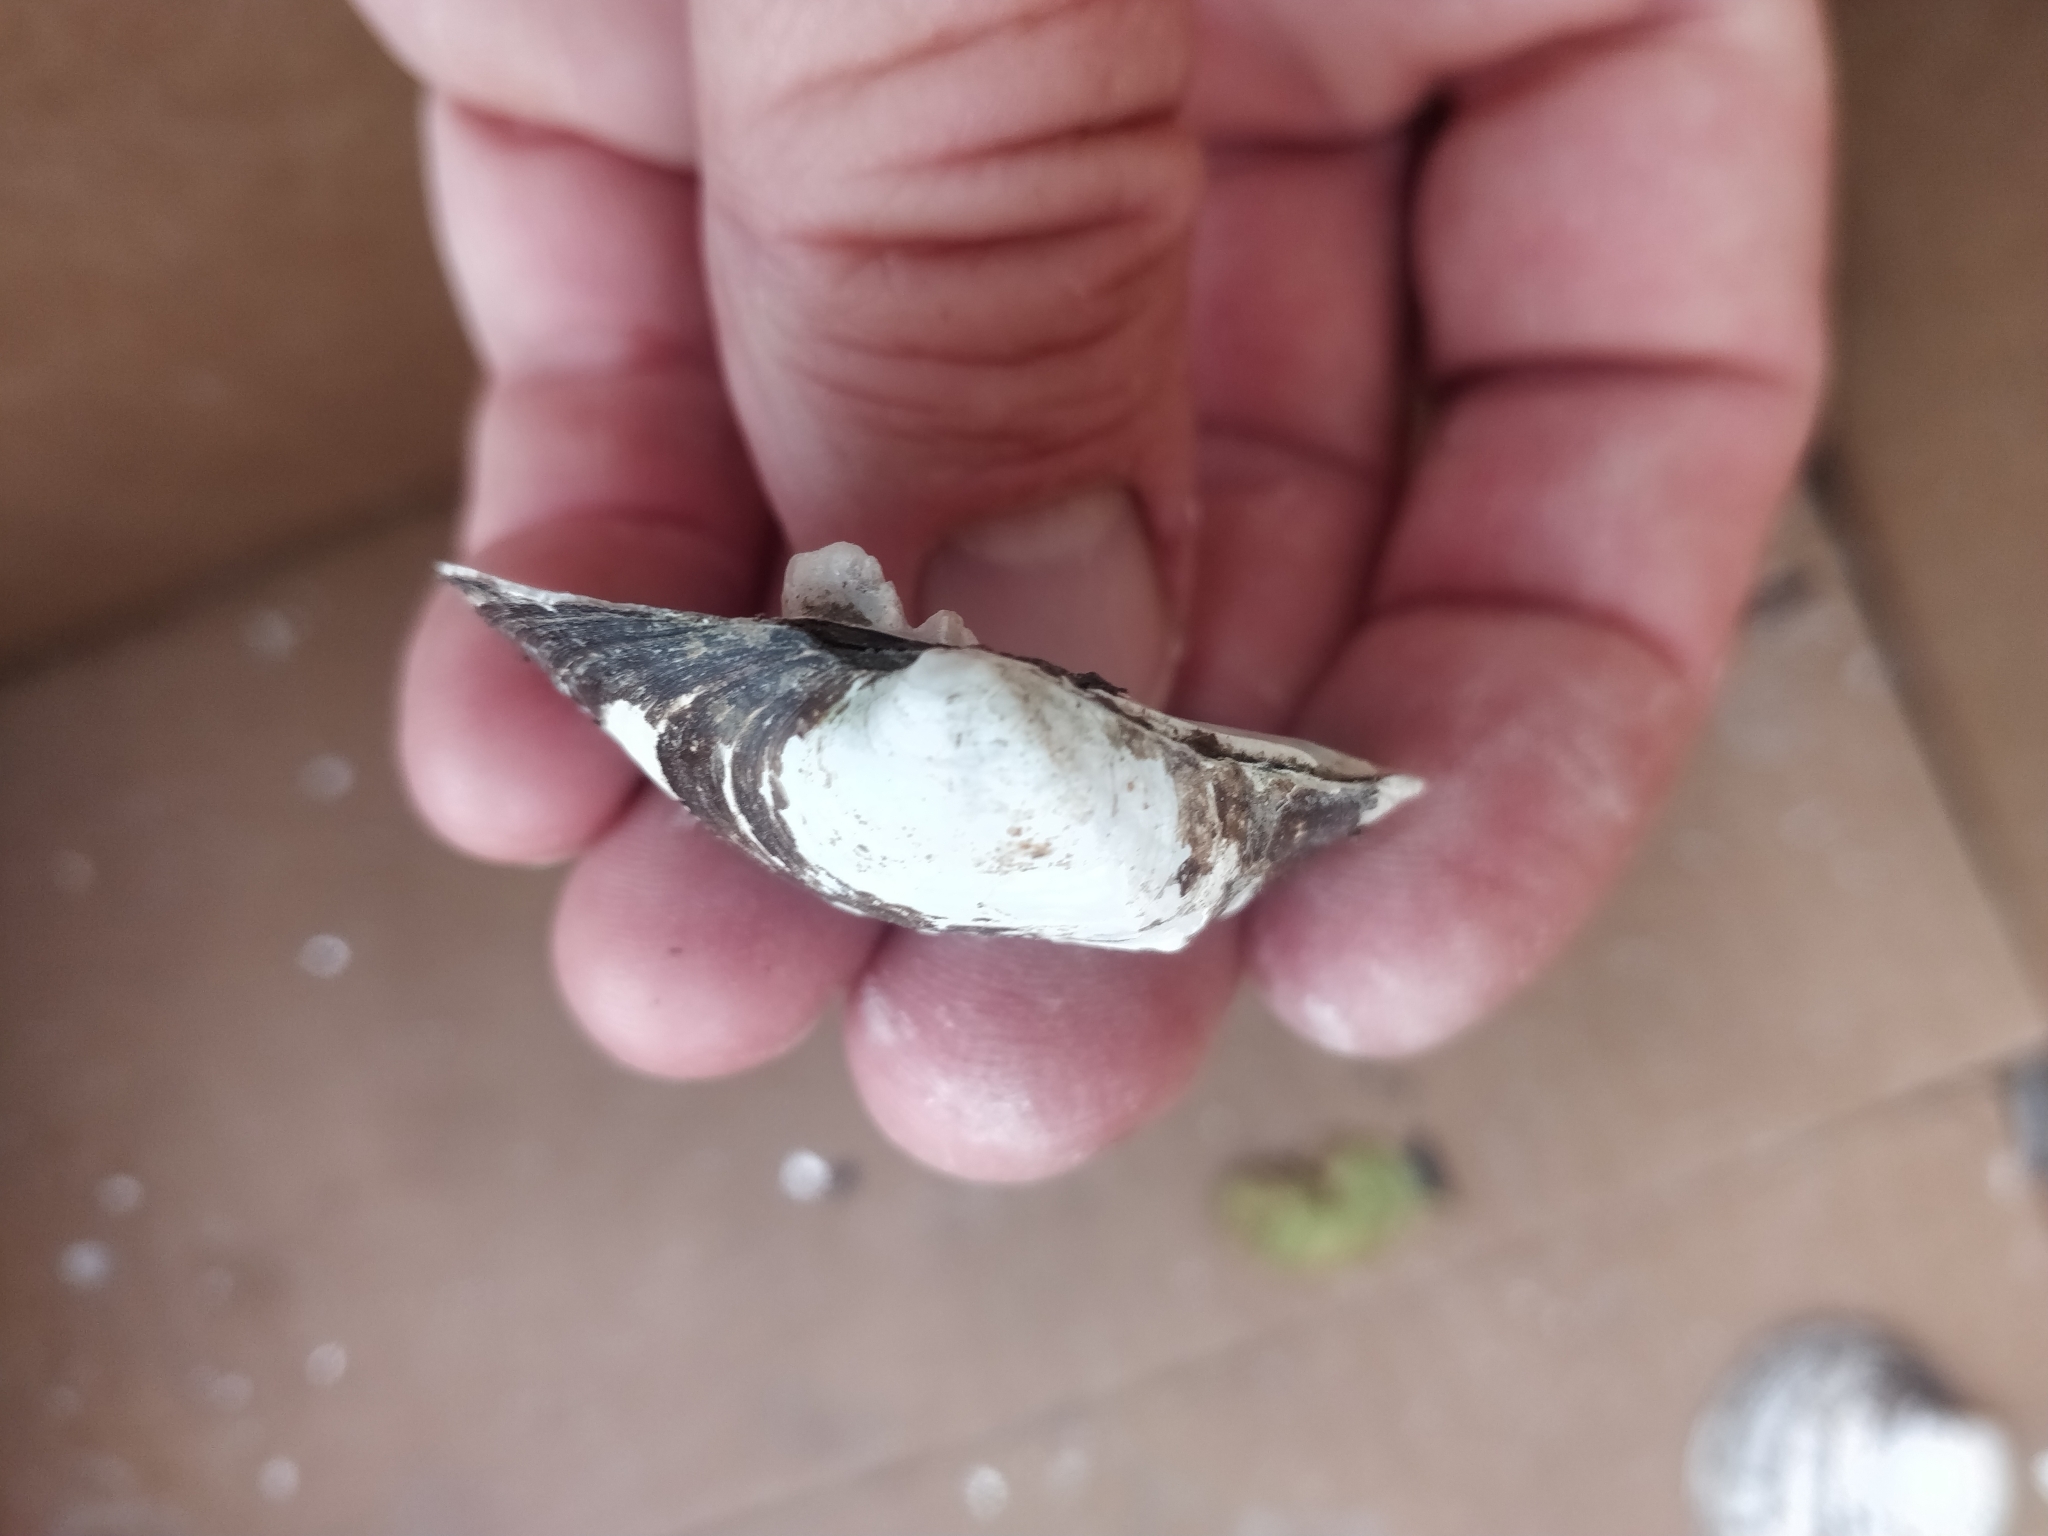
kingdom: Animalia
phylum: Mollusca
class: Bivalvia
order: Unionida
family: Unionidae
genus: Cyclonaias
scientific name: Cyclonaias pustulosa
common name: Pimpleback
